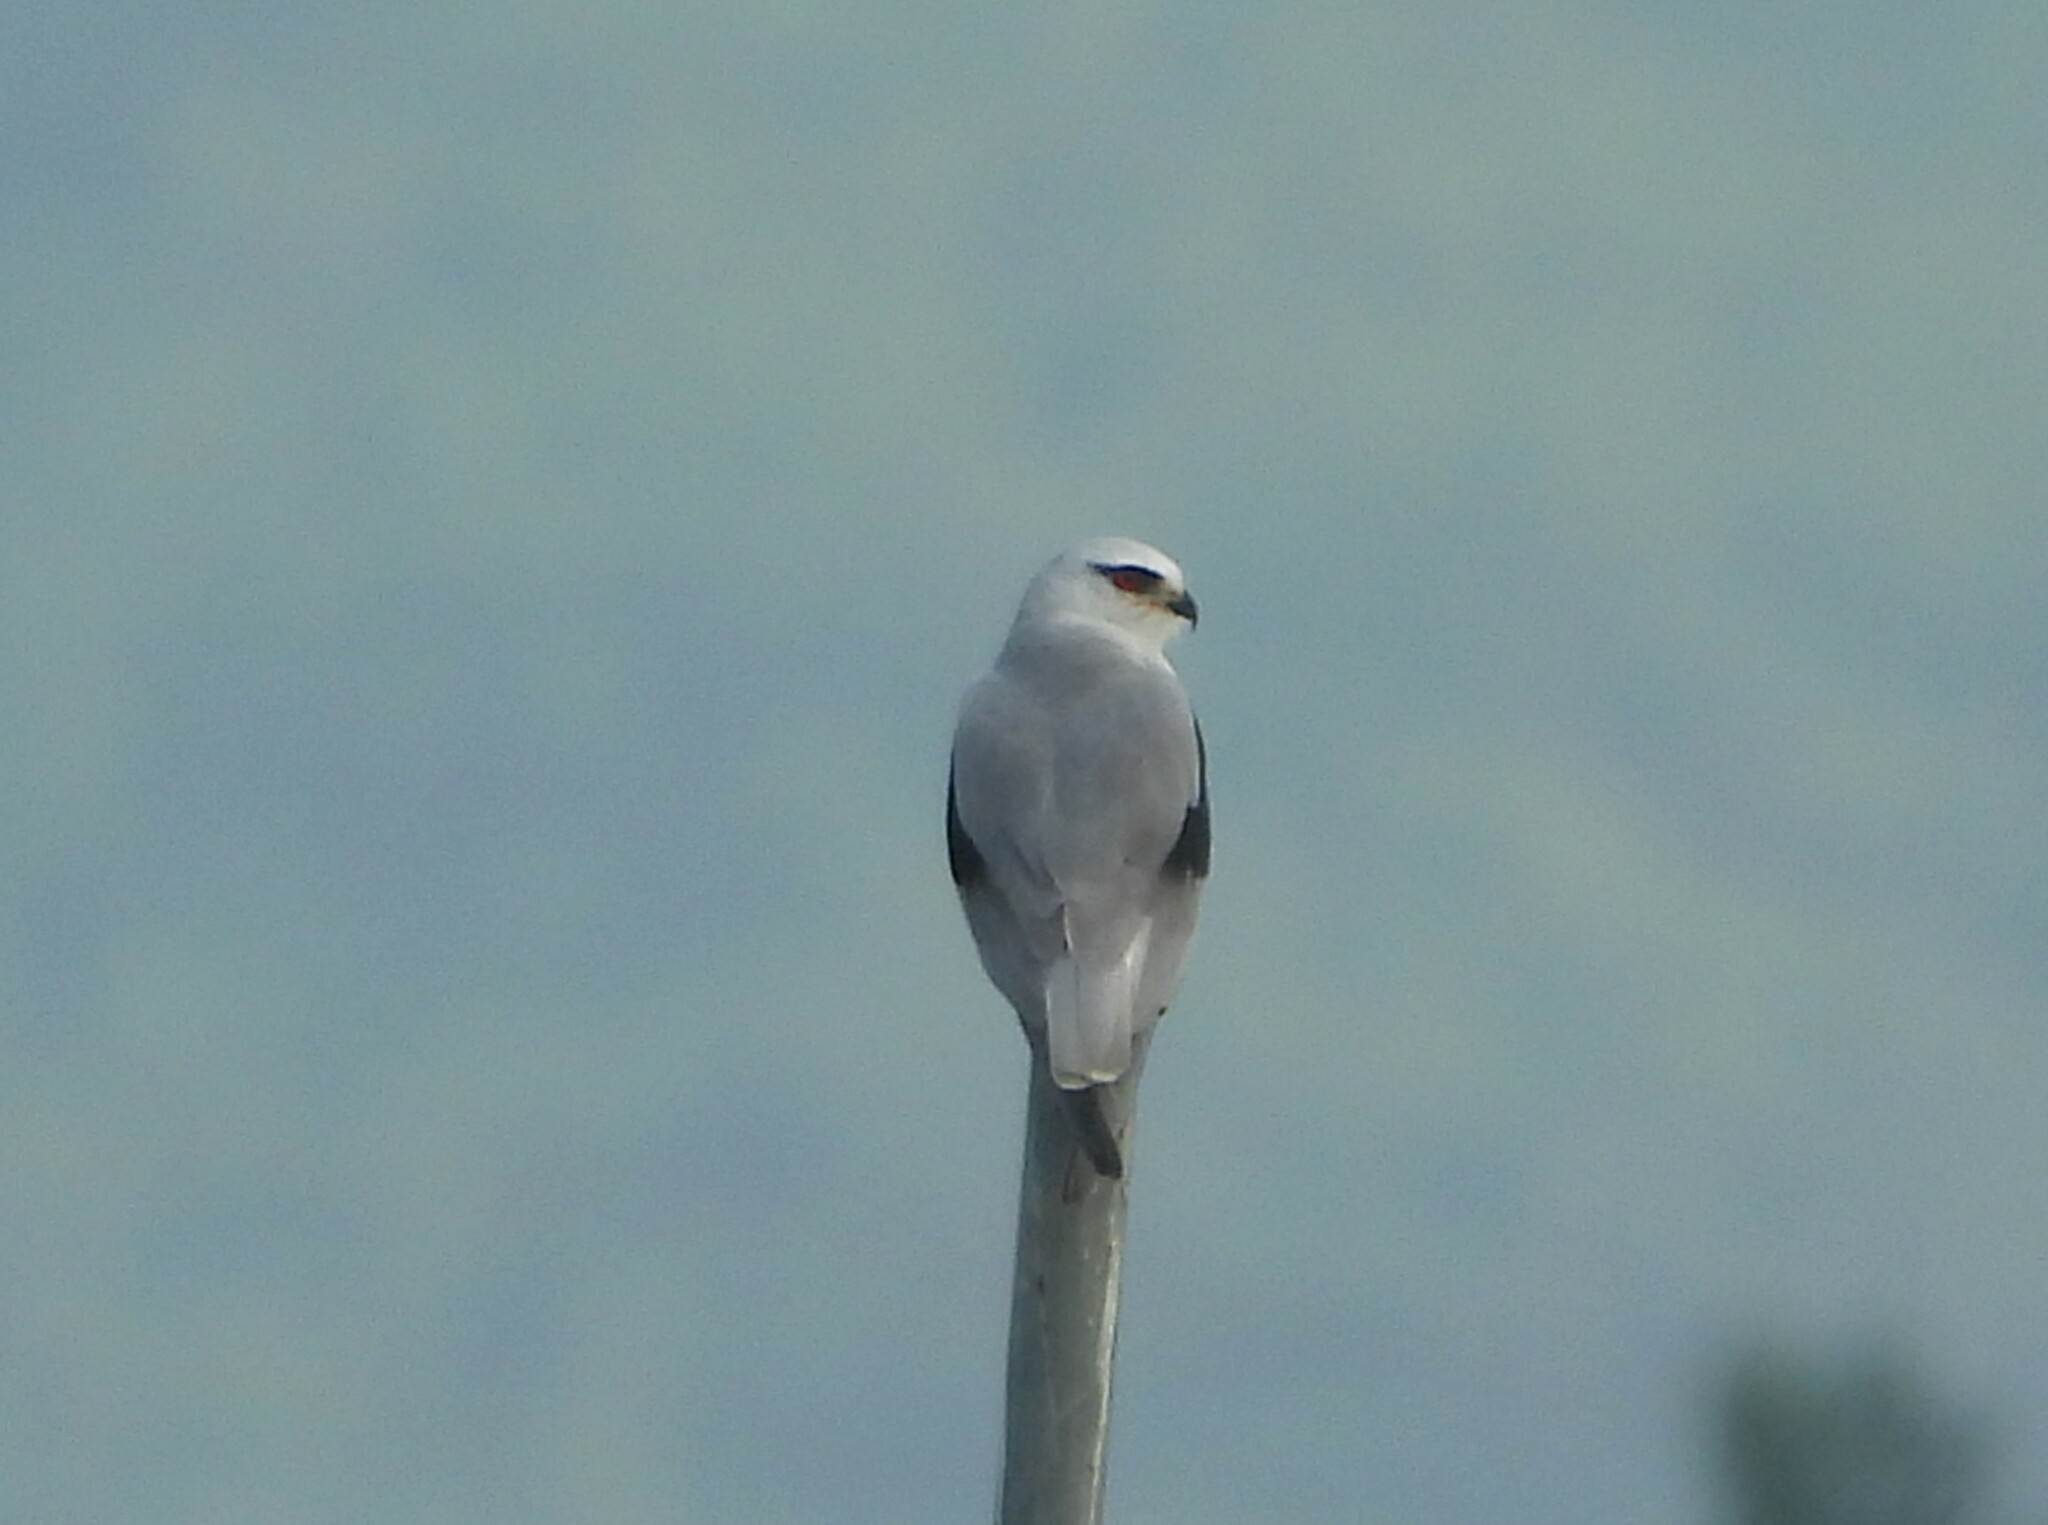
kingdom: Animalia
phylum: Chordata
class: Aves
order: Accipitriformes
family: Accipitridae
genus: Elanus
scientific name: Elanus caeruleus
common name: Black-winged kite
